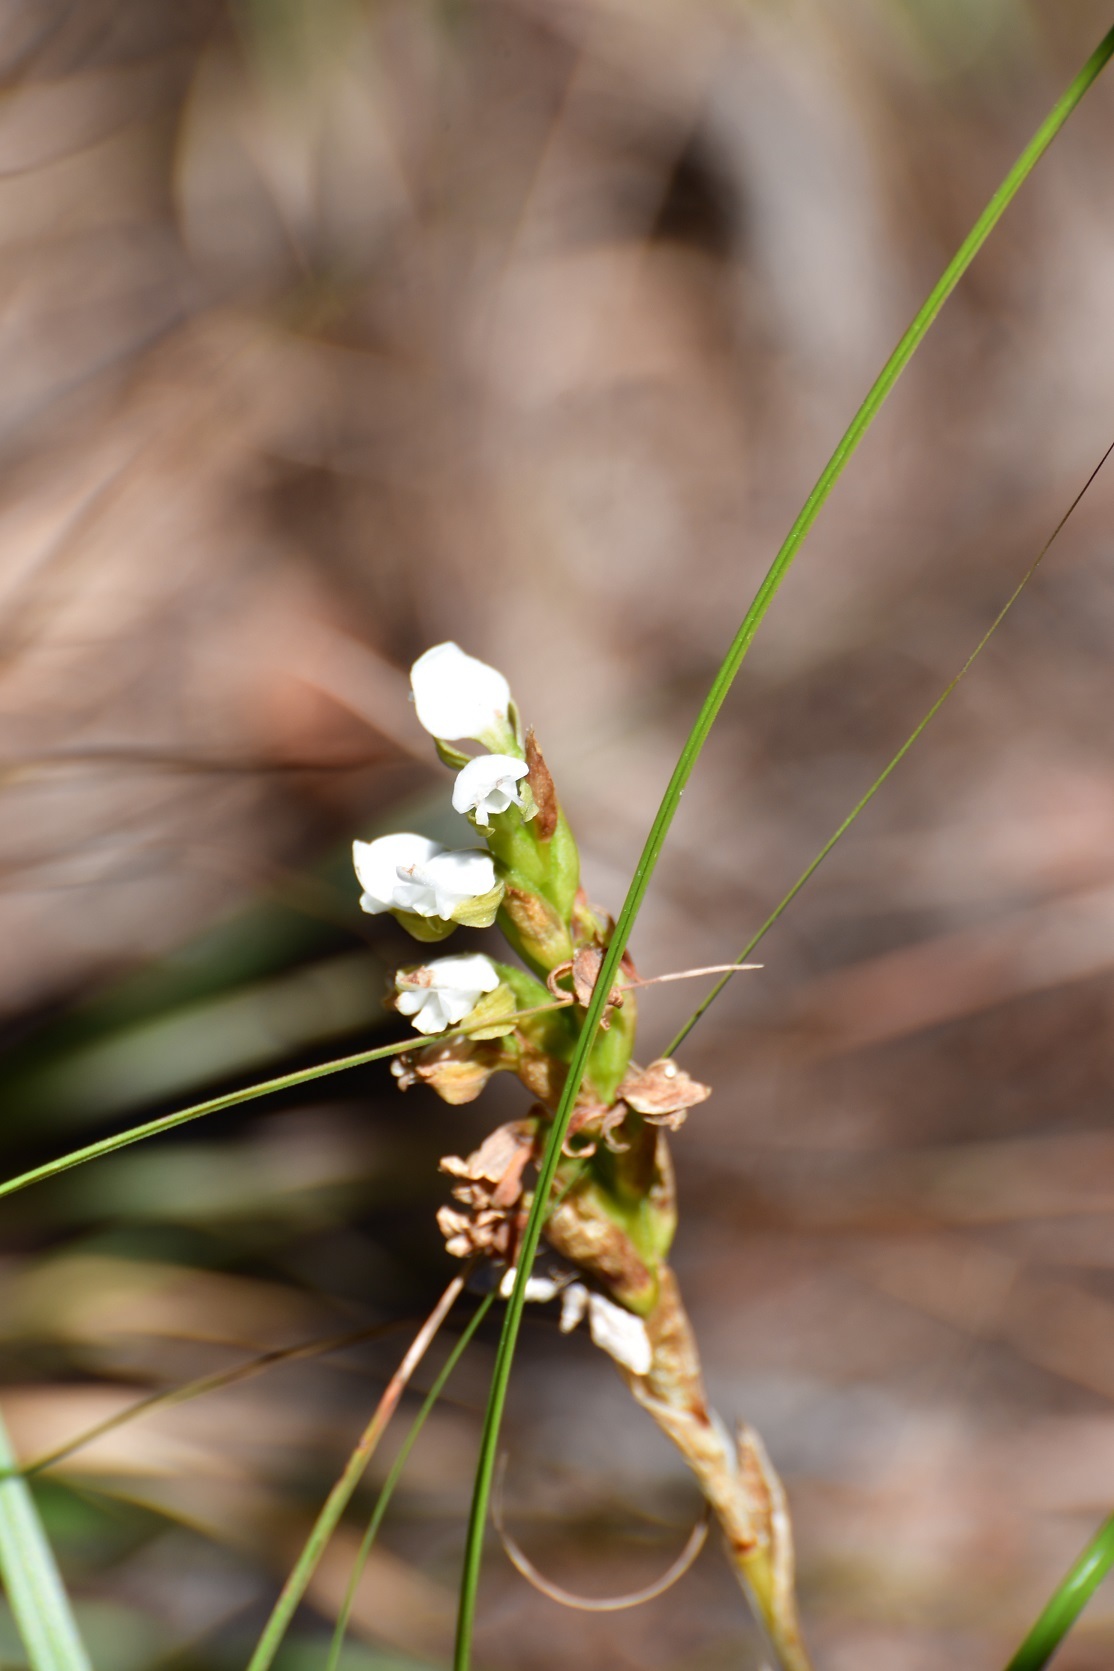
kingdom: Plantae
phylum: Tracheophyta
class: Liliopsida
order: Asparagales
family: Orchidaceae
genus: Aulosepalum
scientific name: Aulosepalum hemichrea
